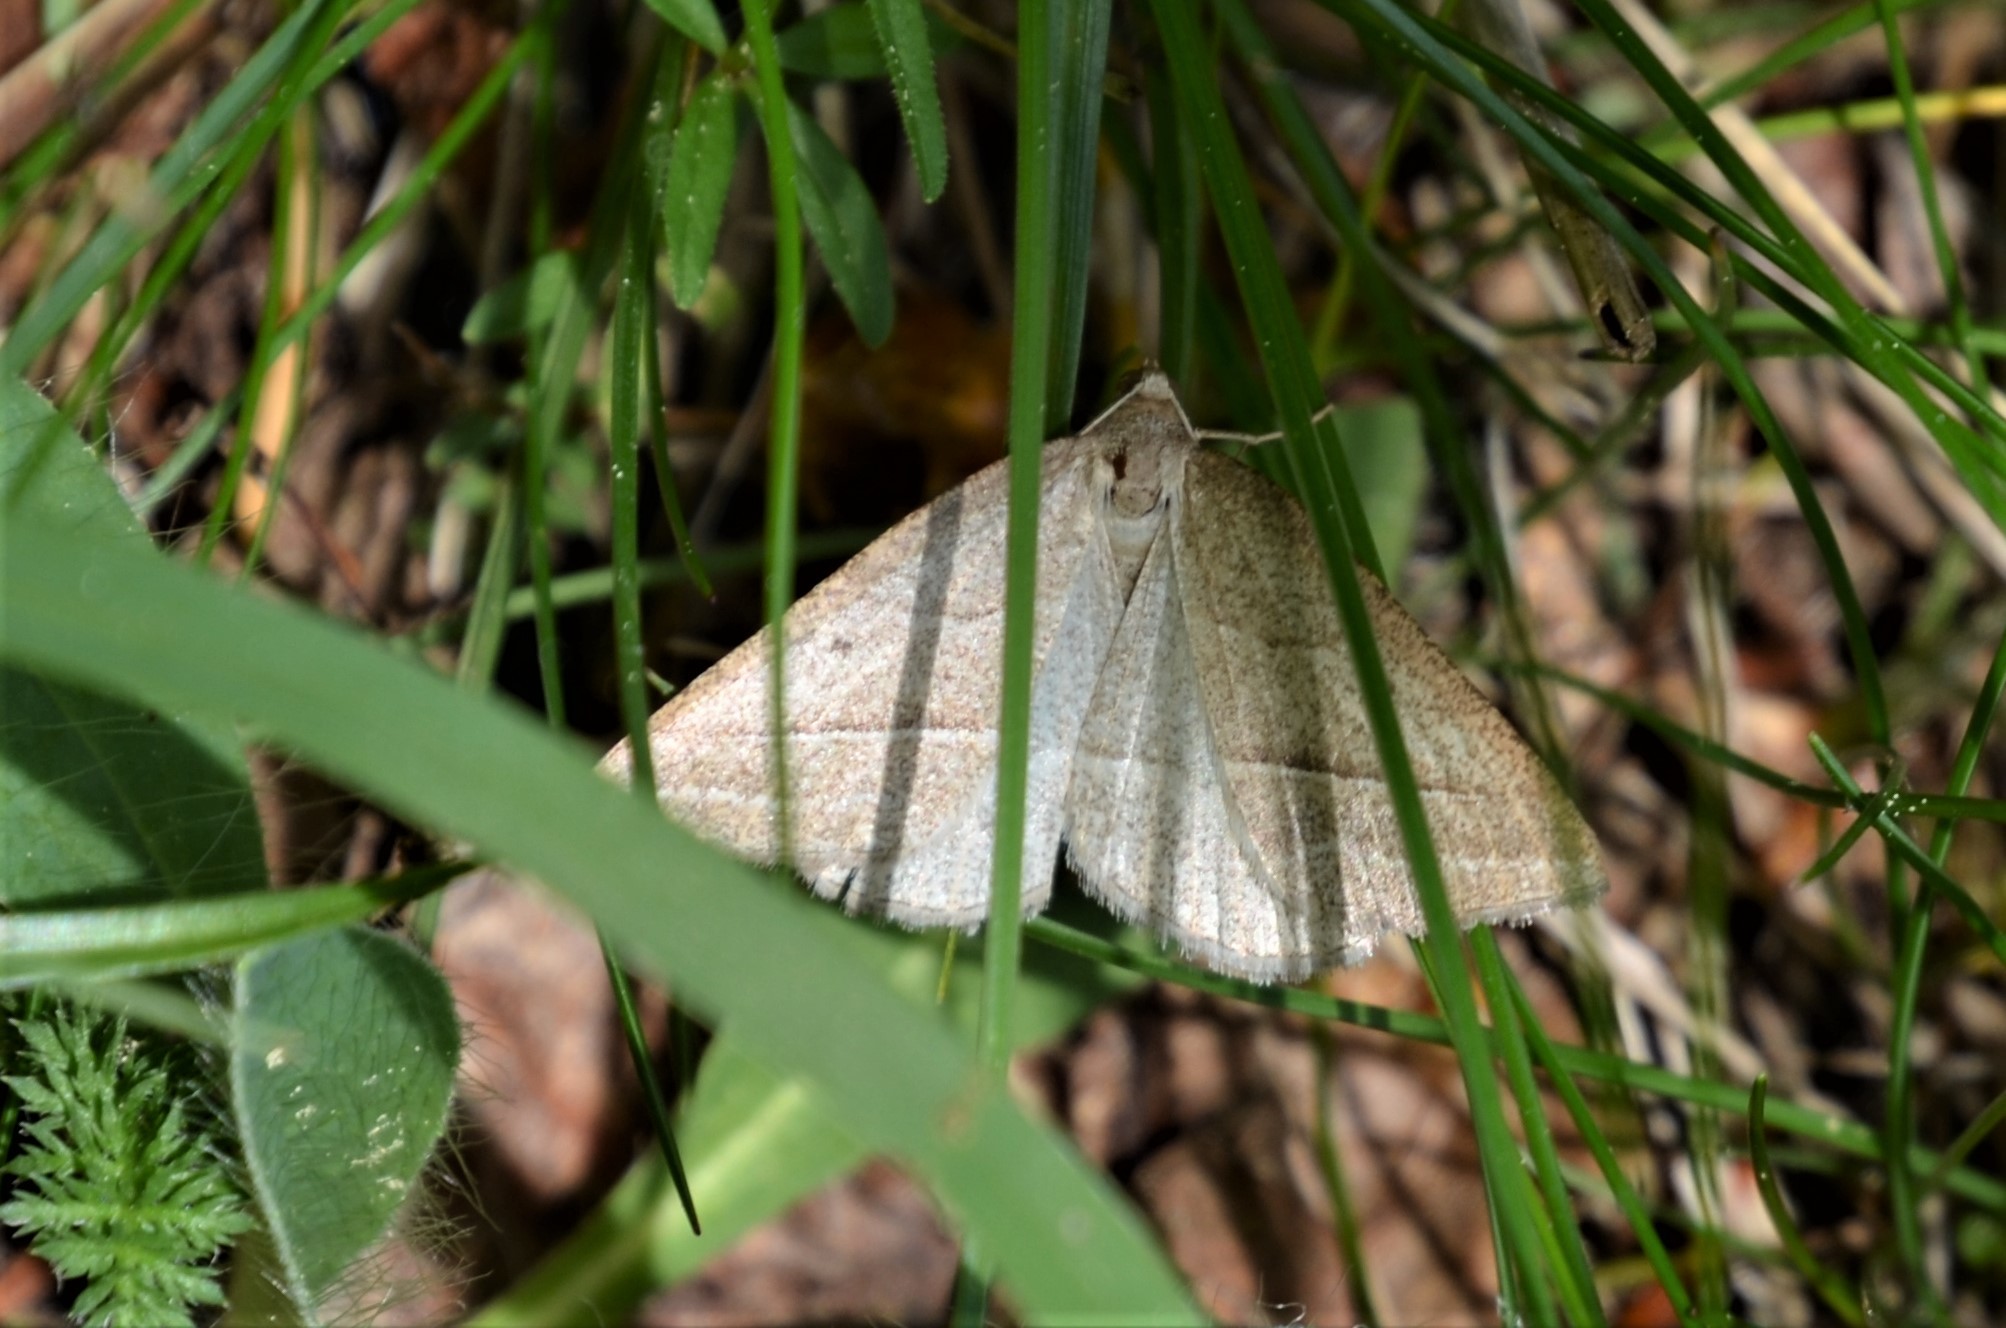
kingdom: Animalia
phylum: Arthropoda
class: Insecta
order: Lepidoptera
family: Pterophoridae
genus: Pterophorus
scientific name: Pterophorus Petrophora chlorosata
